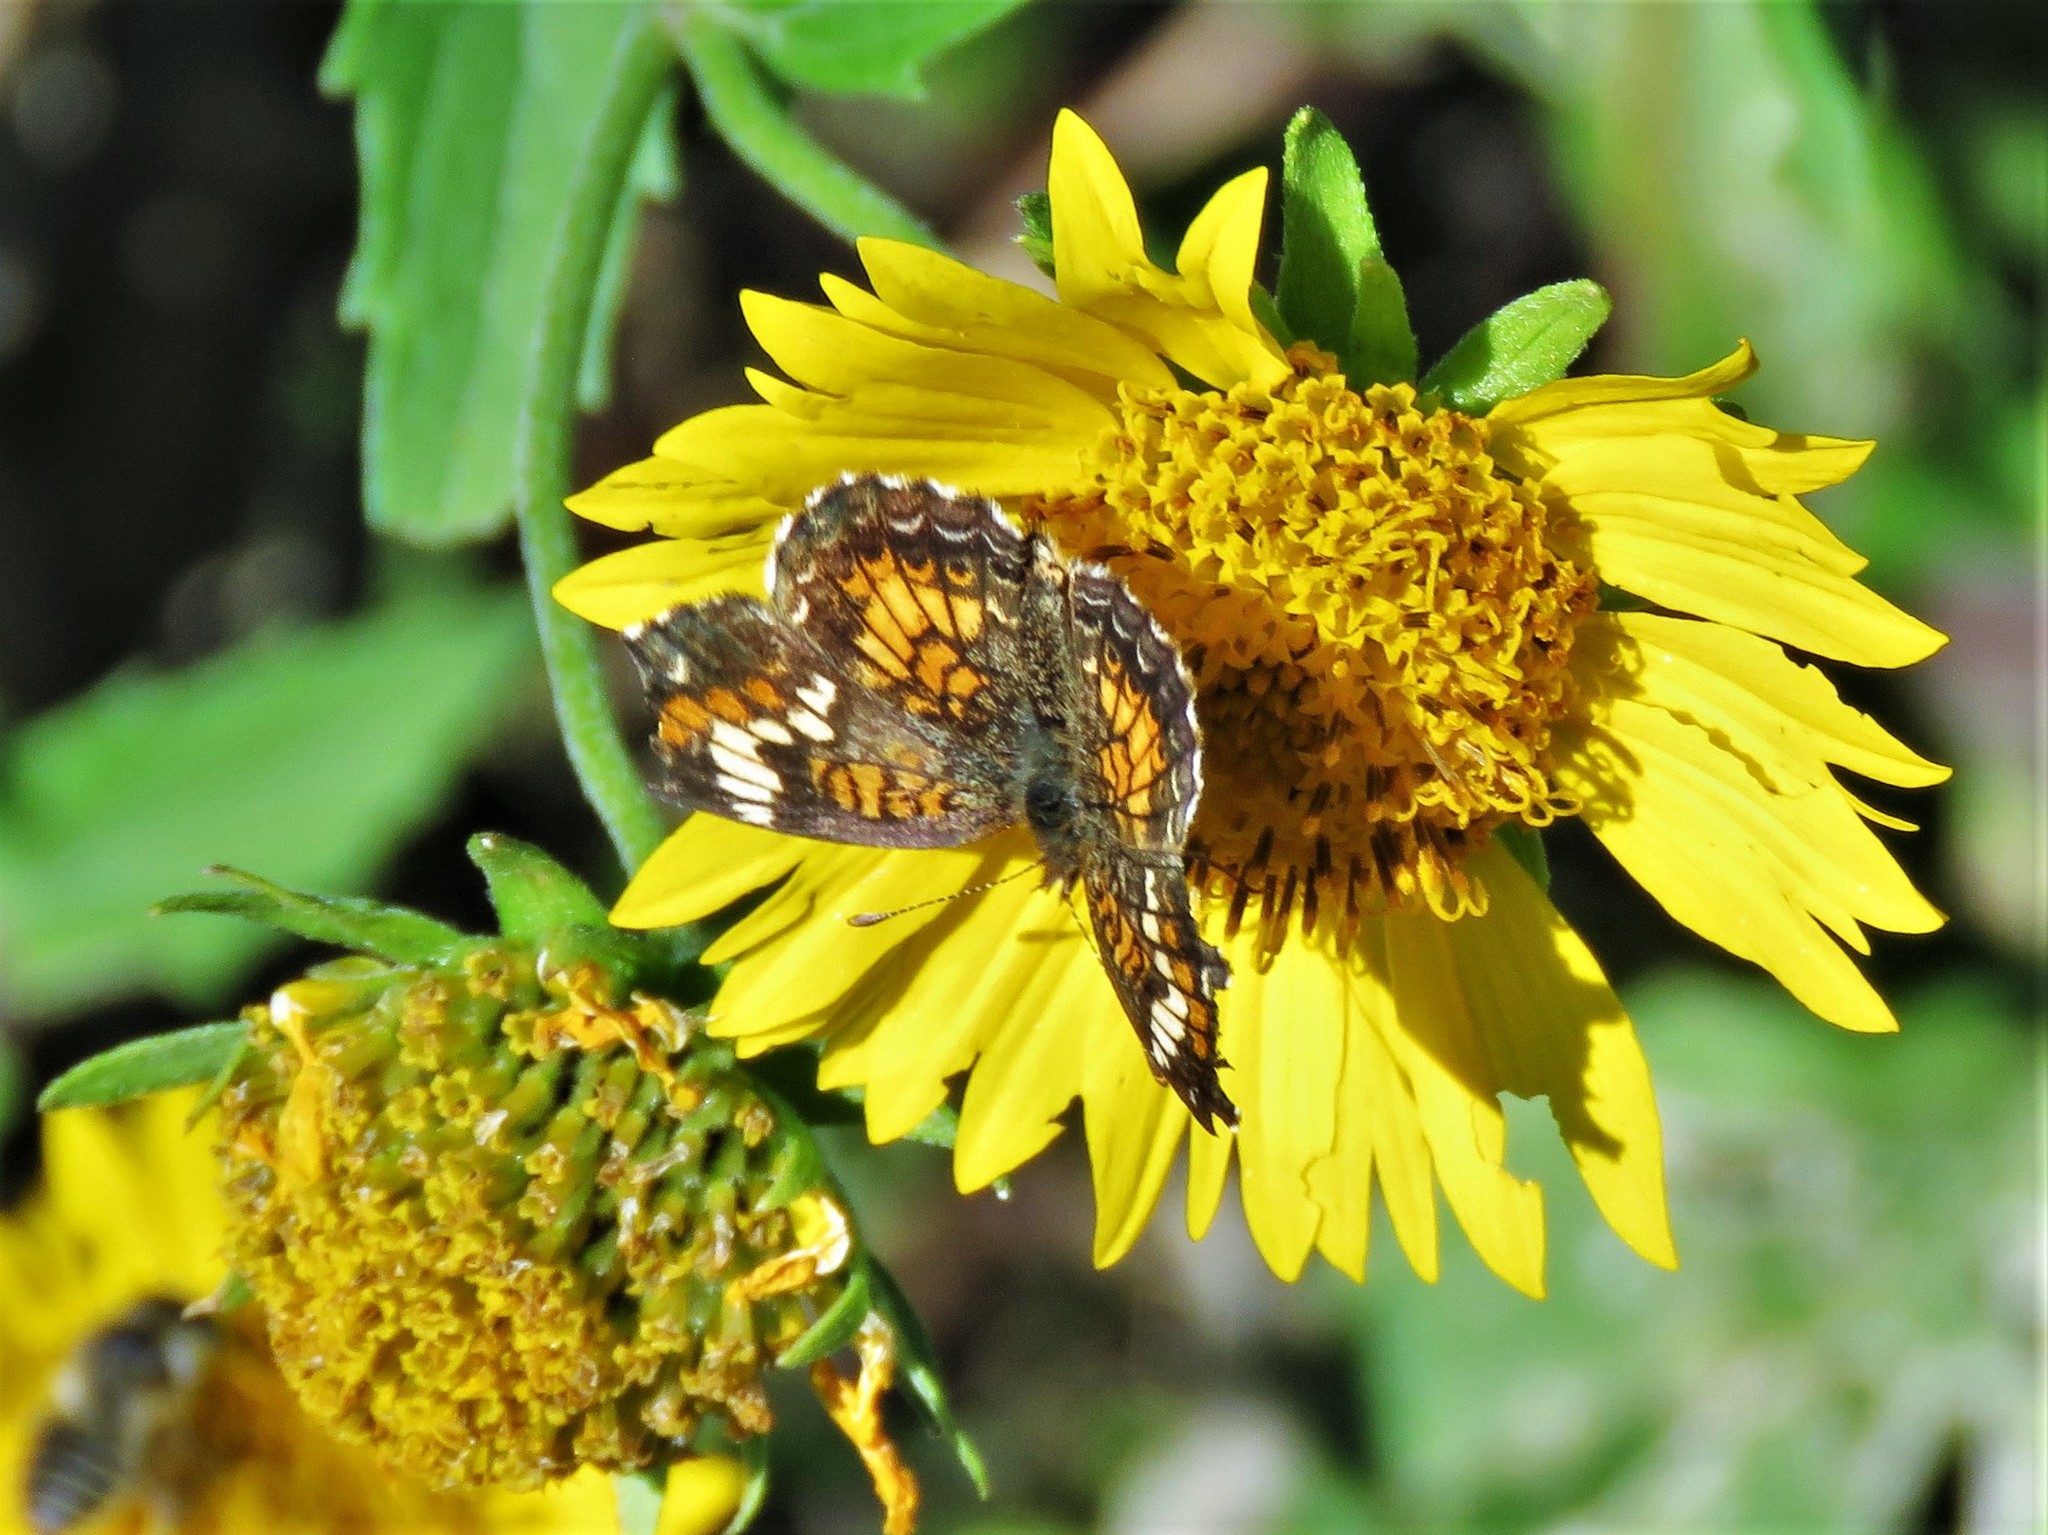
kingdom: Animalia
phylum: Arthropoda
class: Insecta
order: Lepidoptera
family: Nymphalidae
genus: Phyciodes
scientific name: Phyciodes phaon
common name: Phaon crescent
